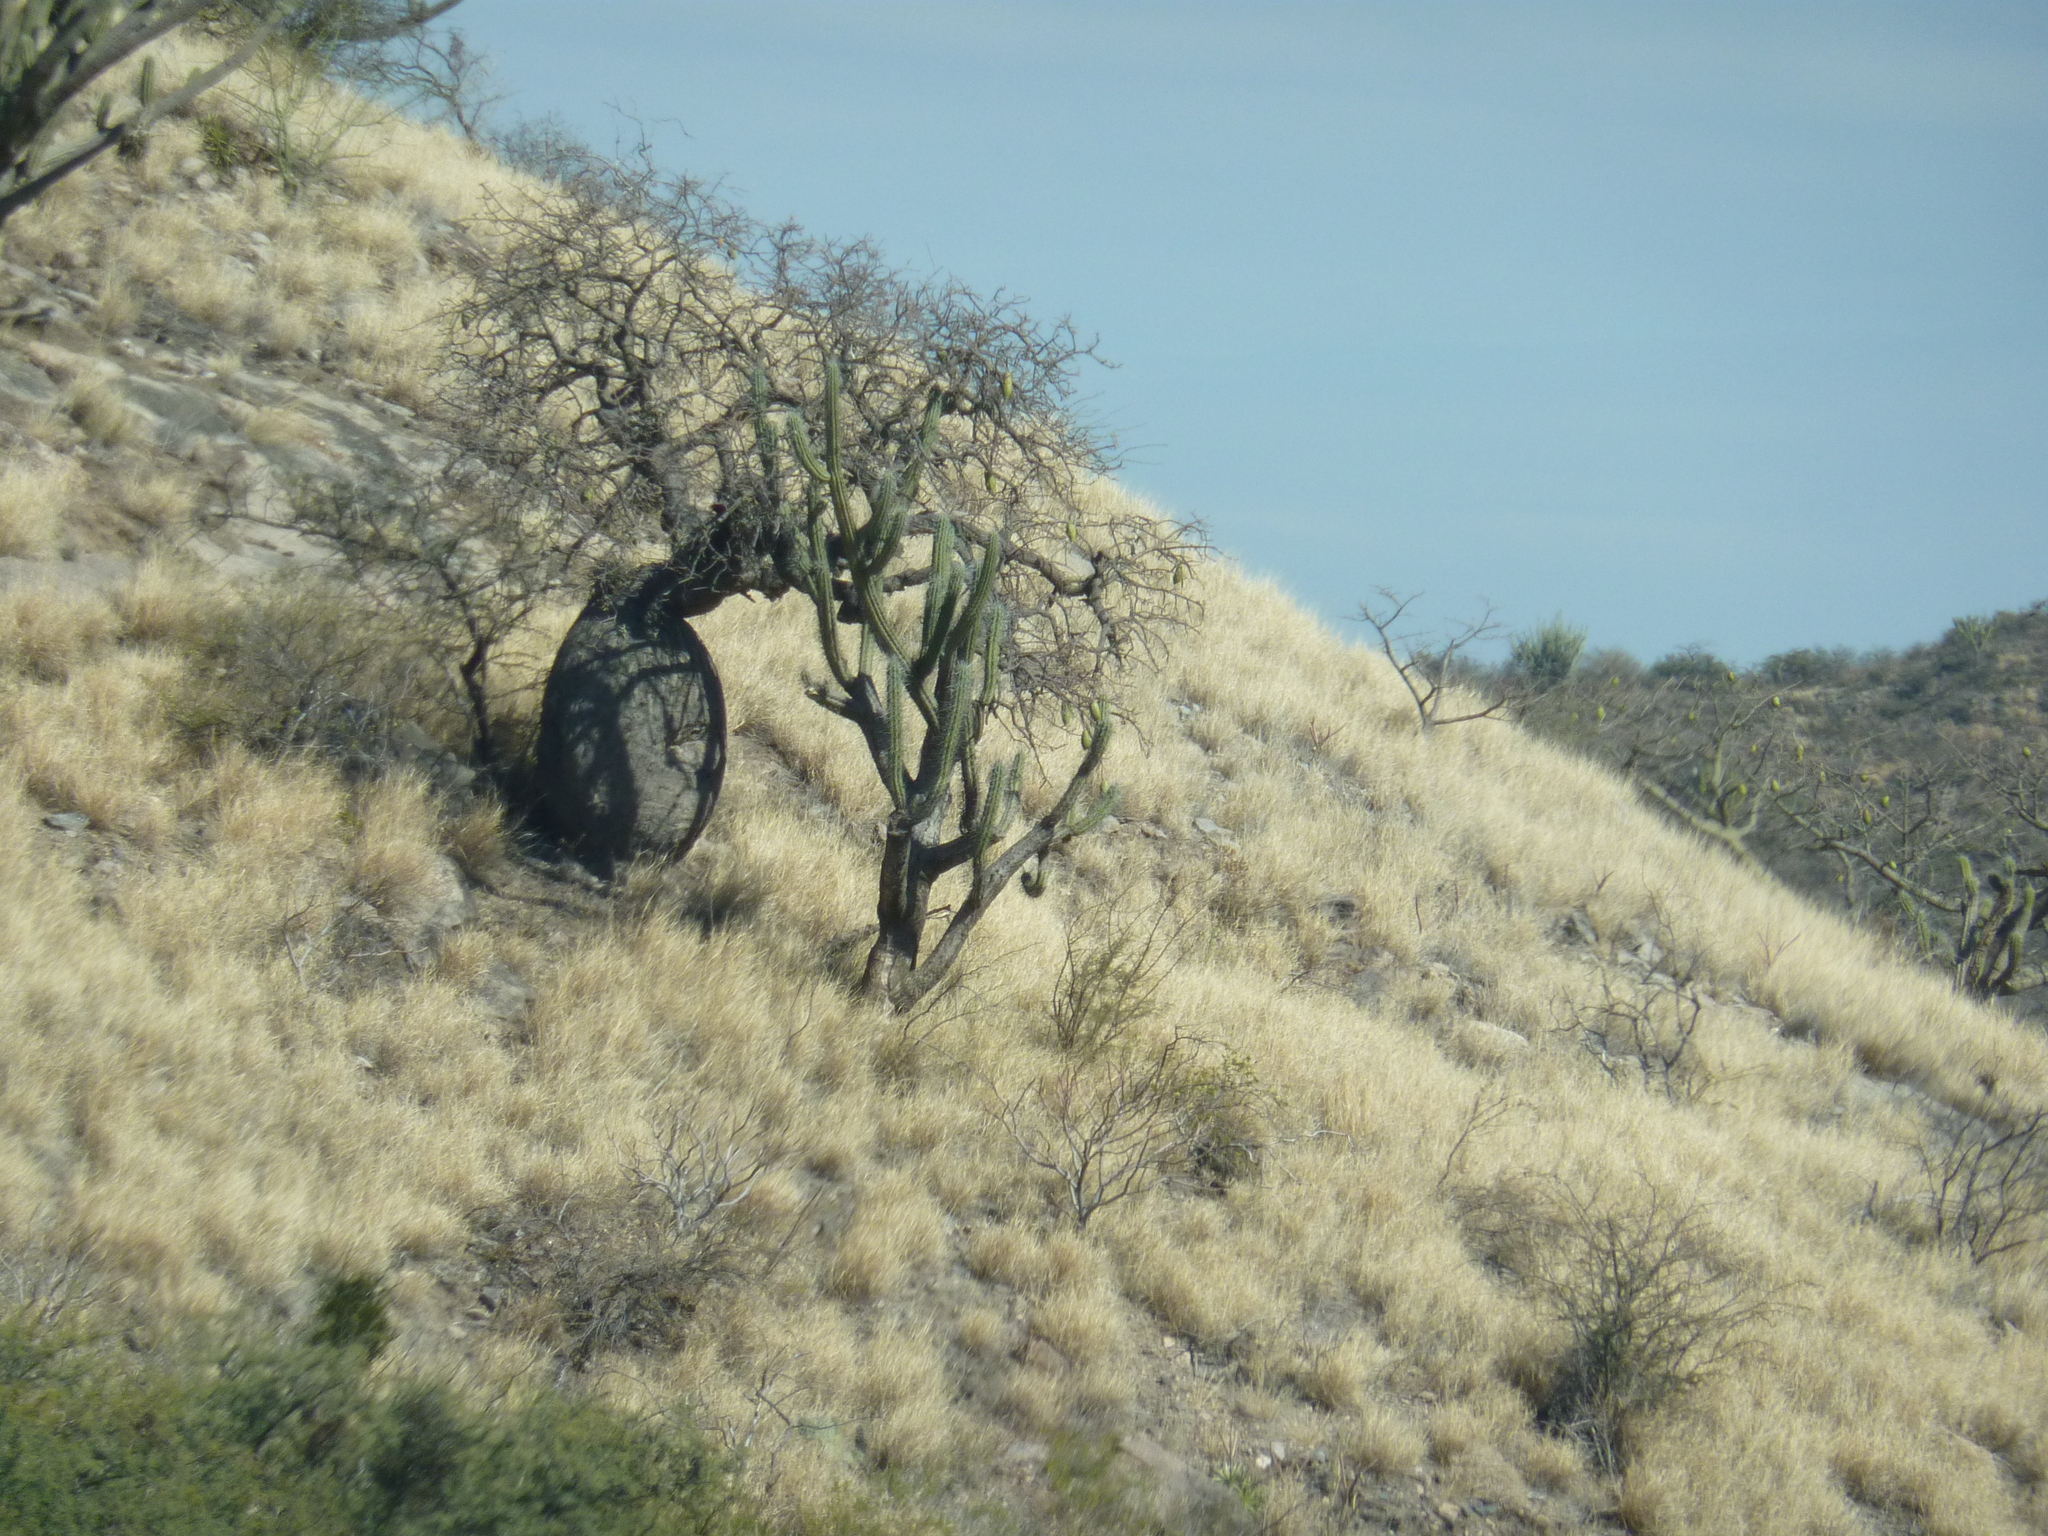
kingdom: Plantae
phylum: Tracheophyta
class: Magnoliopsida
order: Malvales
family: Malvaceae
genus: Ceiba
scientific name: Ceiba chodatii
